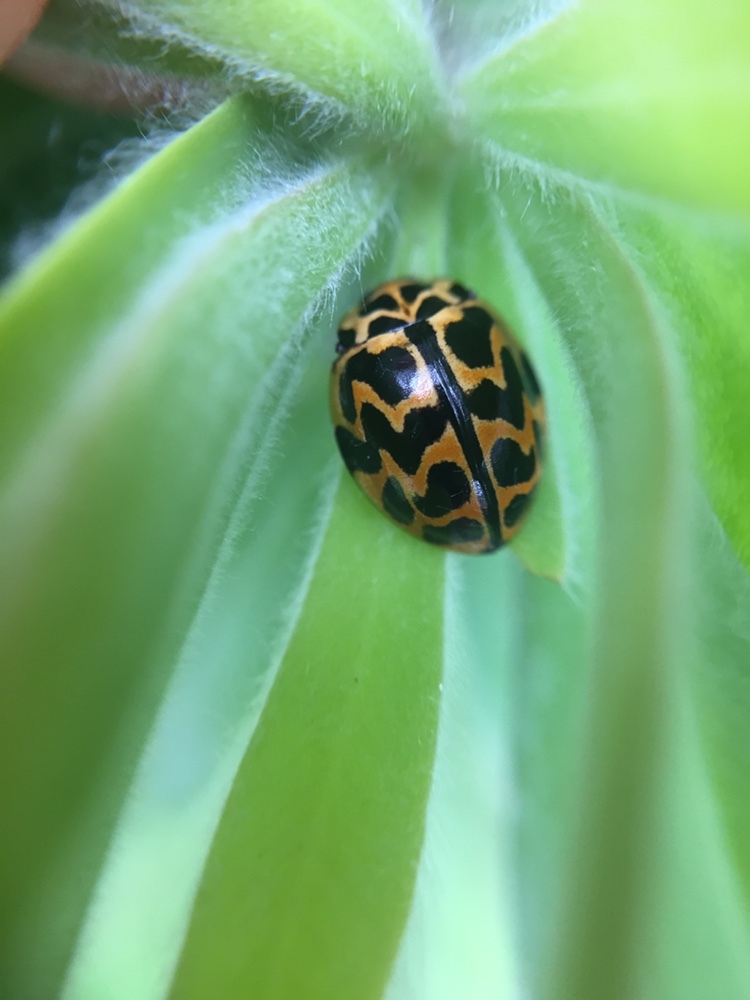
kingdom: Animalia
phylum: Arthropoda
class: Insecta
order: Coleoptera
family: Coccinellidae
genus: Cleobora
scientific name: Cleobora
